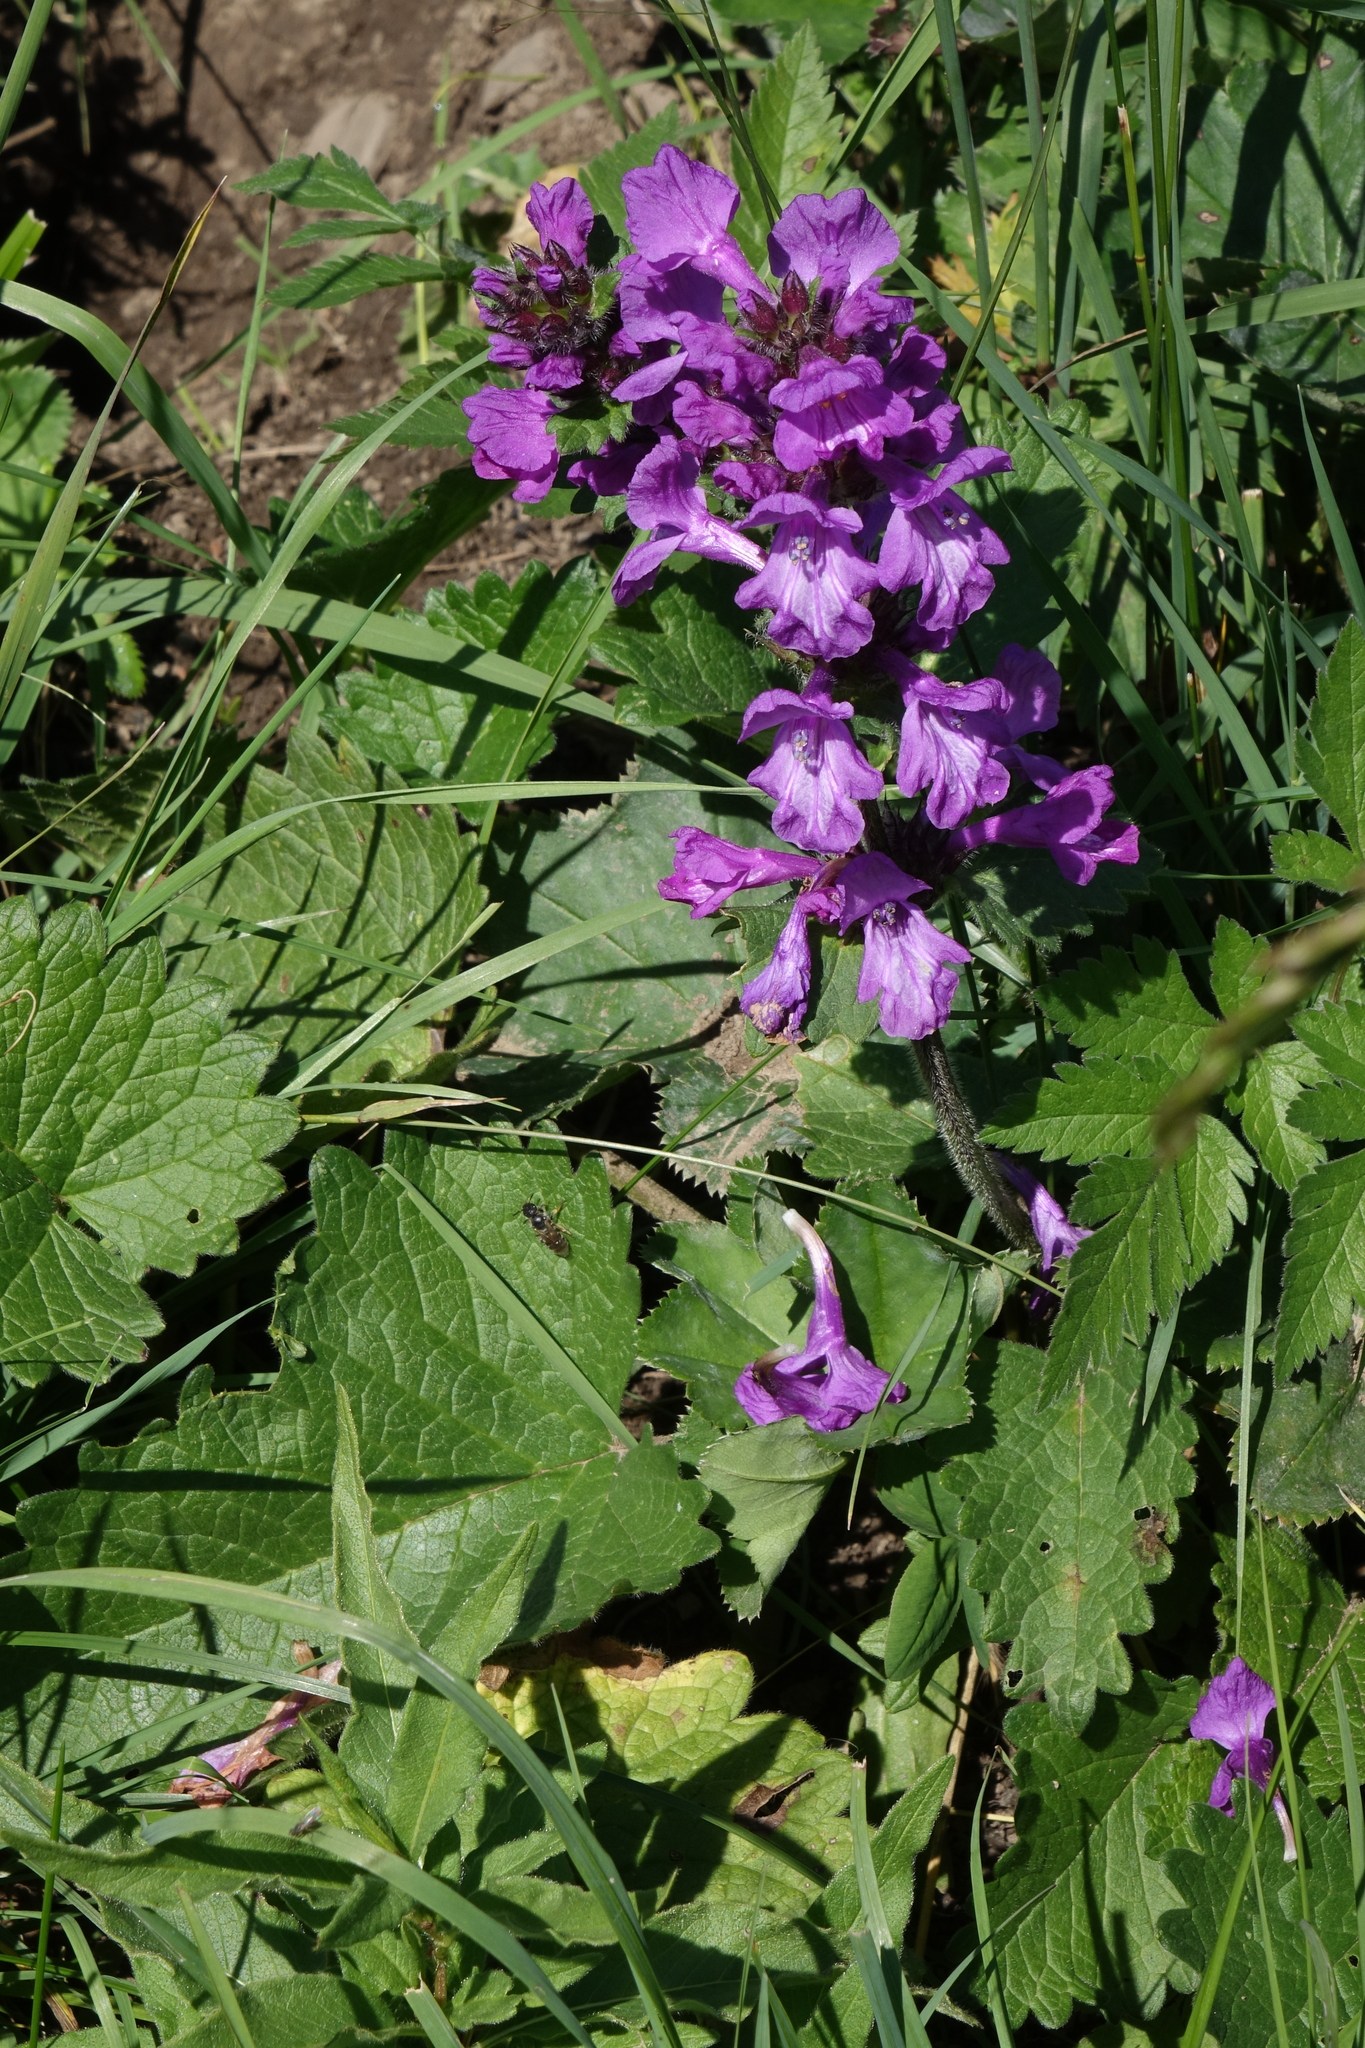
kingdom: Plantae
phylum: Tracheophyta
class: Magnoliopsida
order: Lamiales
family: Lamiaceae
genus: Betonica
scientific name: Betonica macrantha
